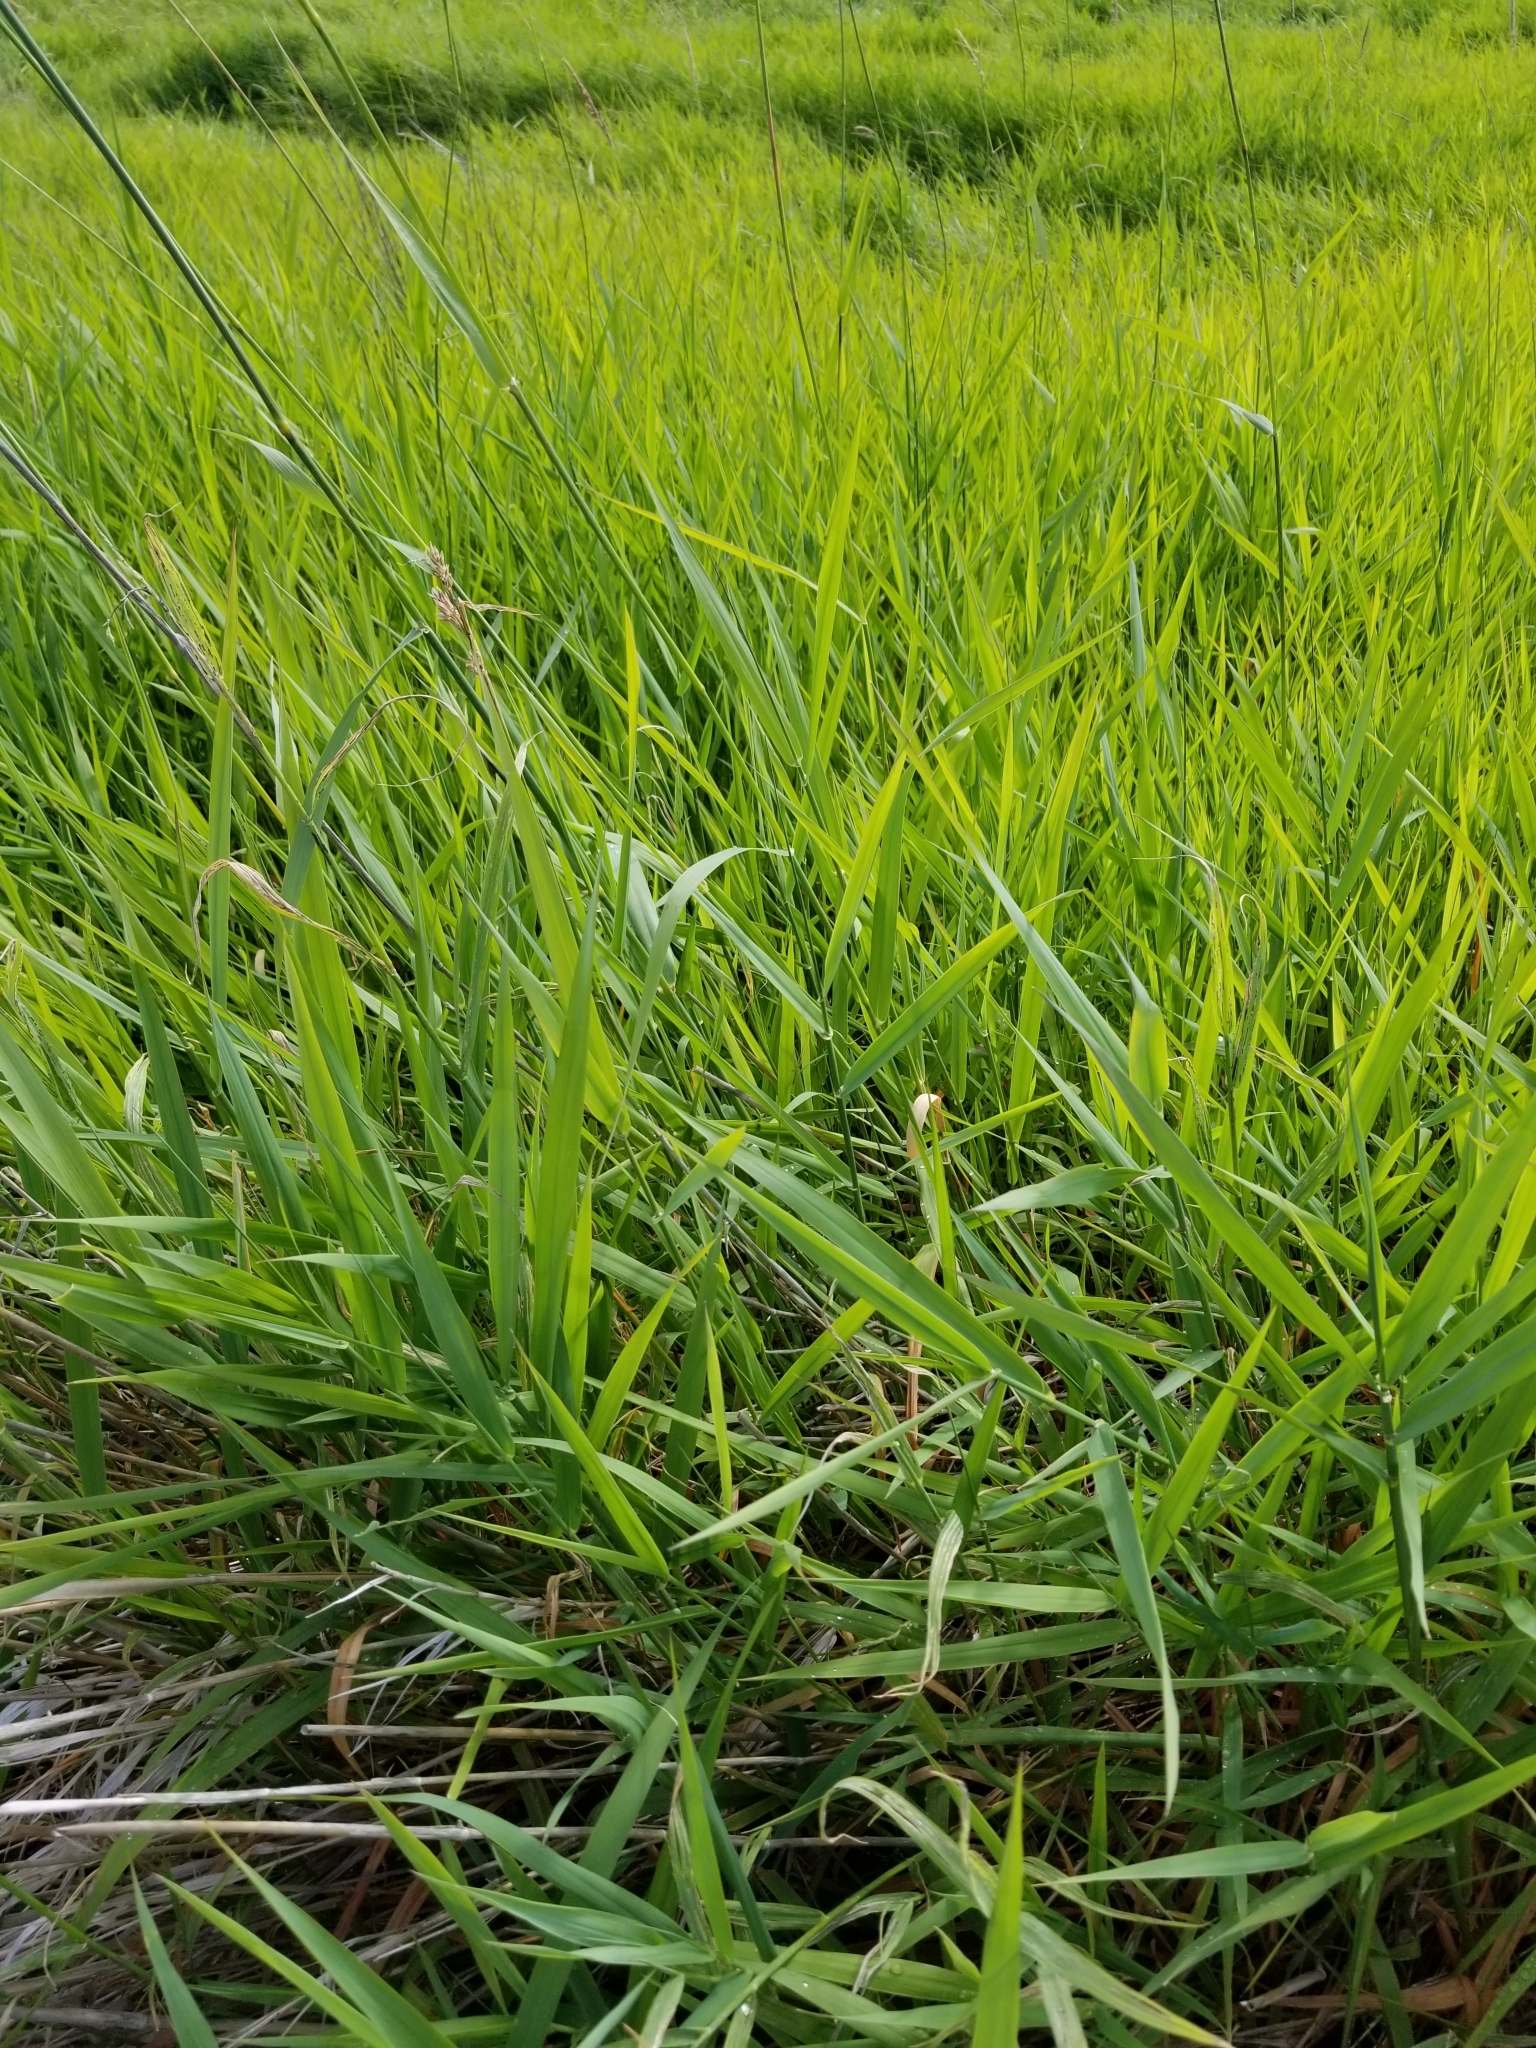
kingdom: Plantae
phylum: Tracheophyta
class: Liliopsida
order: Poales
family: Poaceae
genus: Phalaris
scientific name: Phalaris arundinacea
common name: Reed canary-grass
